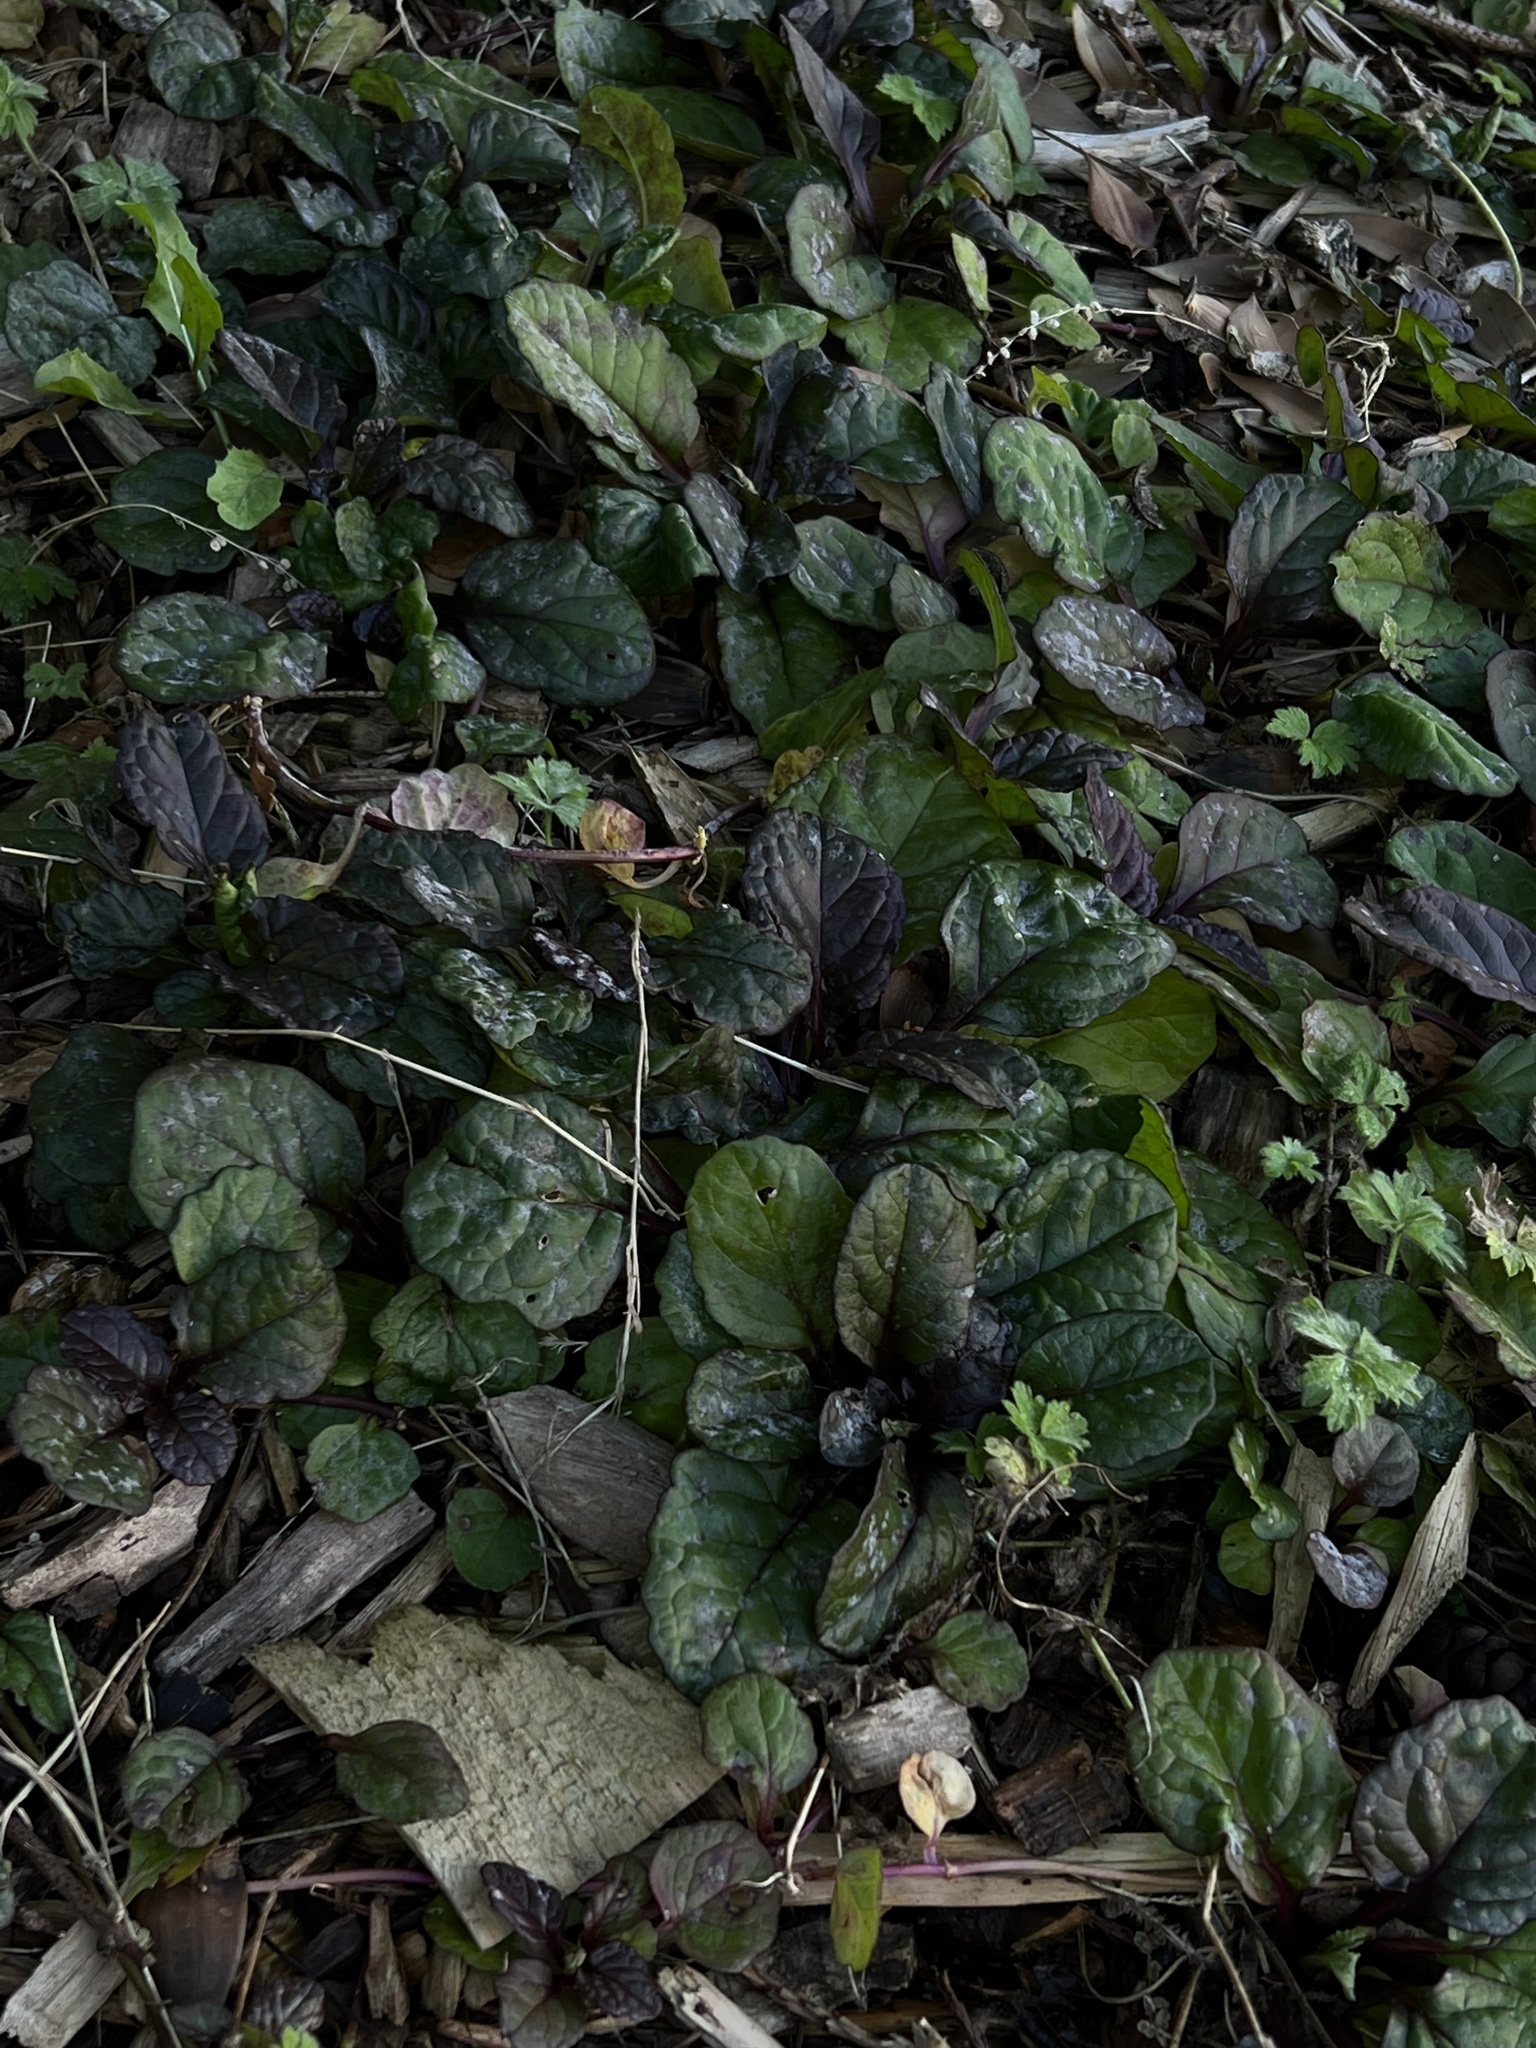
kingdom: Plantae
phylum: Tracheophyta
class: Magnoliopsida
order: Lamiales
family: Lamiaceae
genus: Ajuga
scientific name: Ajuga reptans
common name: Bugle
